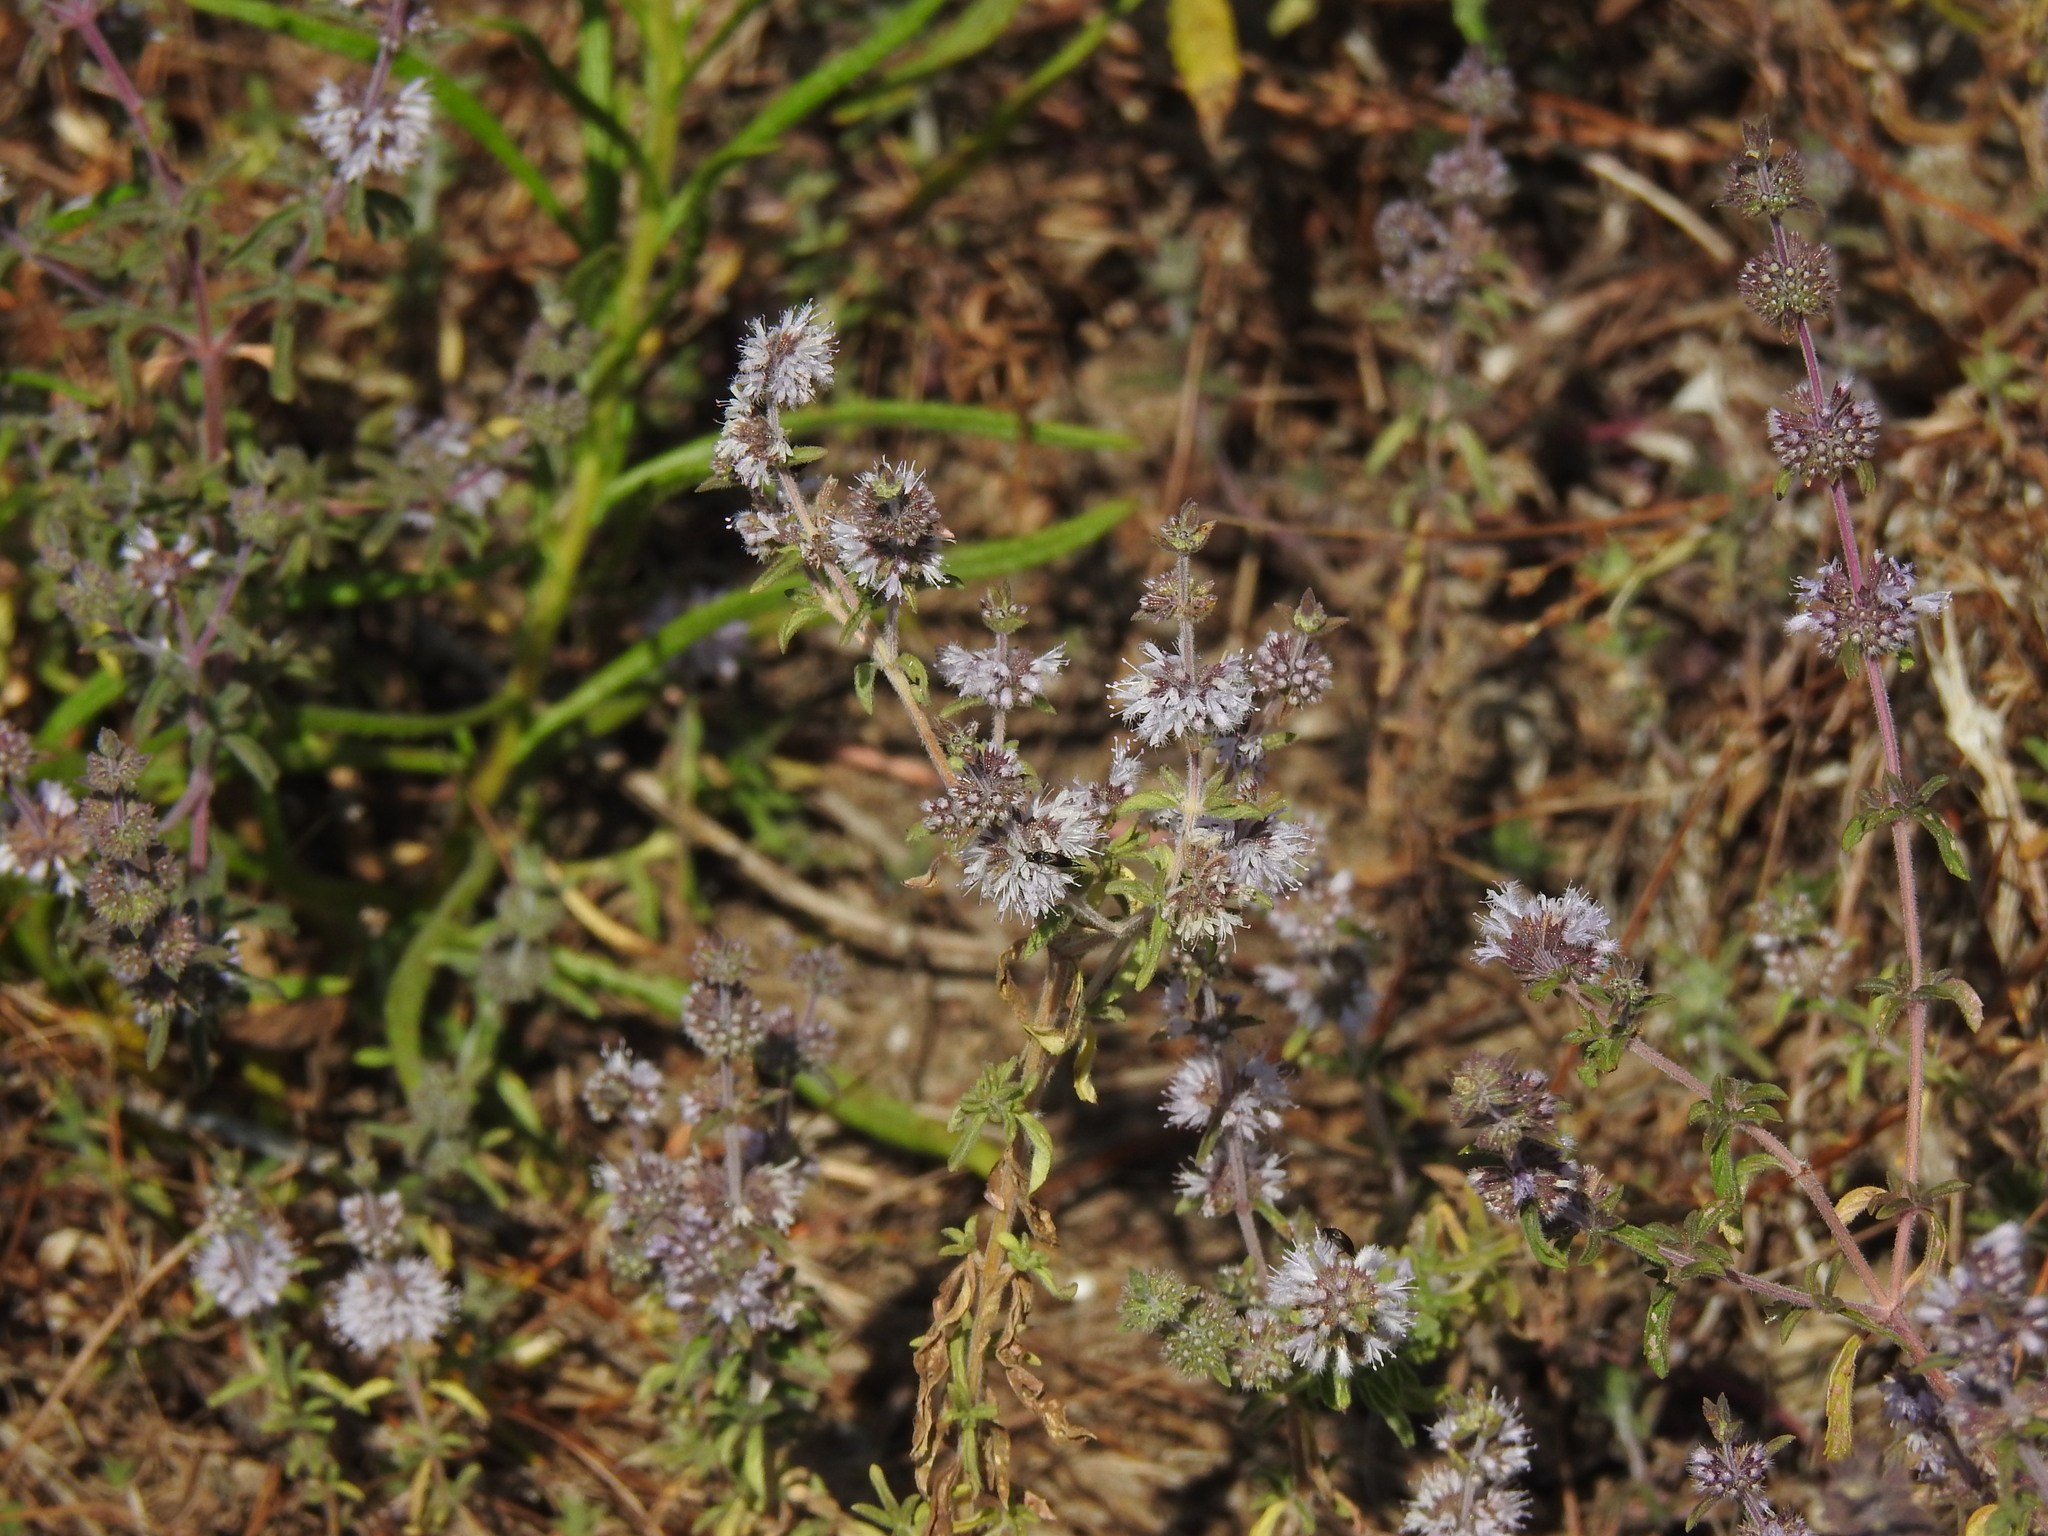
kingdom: Plantae
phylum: Tracheophyta
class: Magnoliopsida
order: Lamiales
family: Lamiaceae
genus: Mentha
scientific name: Mentha pulegium
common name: Pennyroyal
